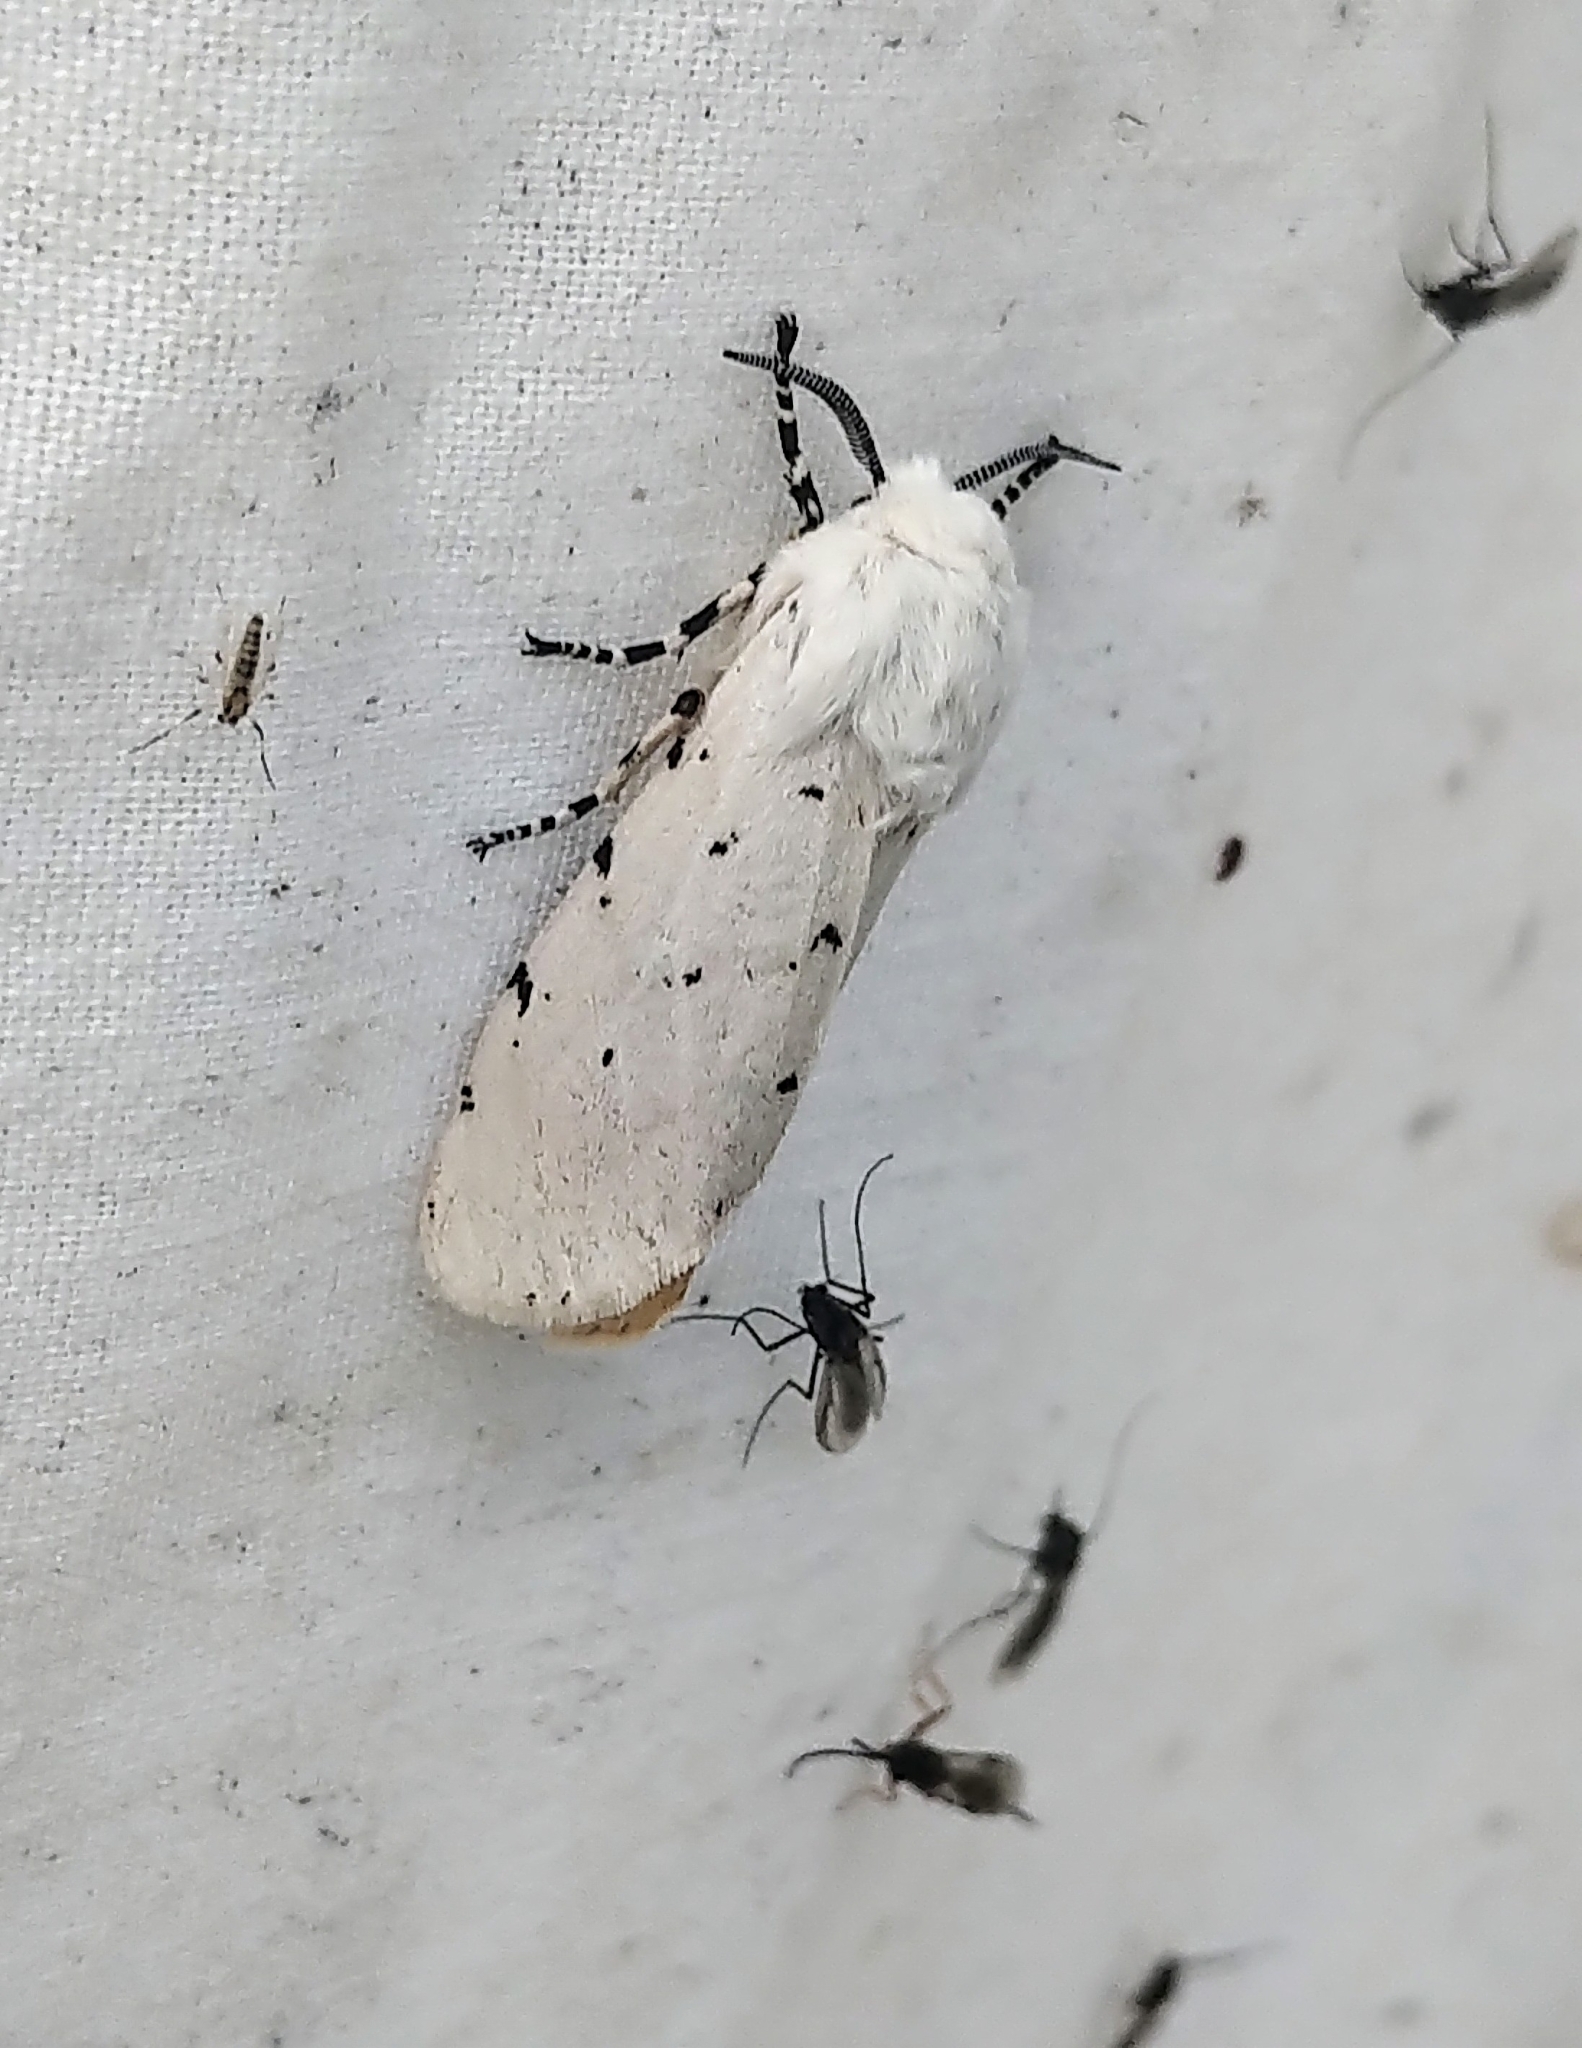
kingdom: Animalia
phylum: Arthropoda
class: Insecta
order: Lepidoptera
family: Erebidae
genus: Estigmene
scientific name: Estigmene acrea
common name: Salt marsh moth
